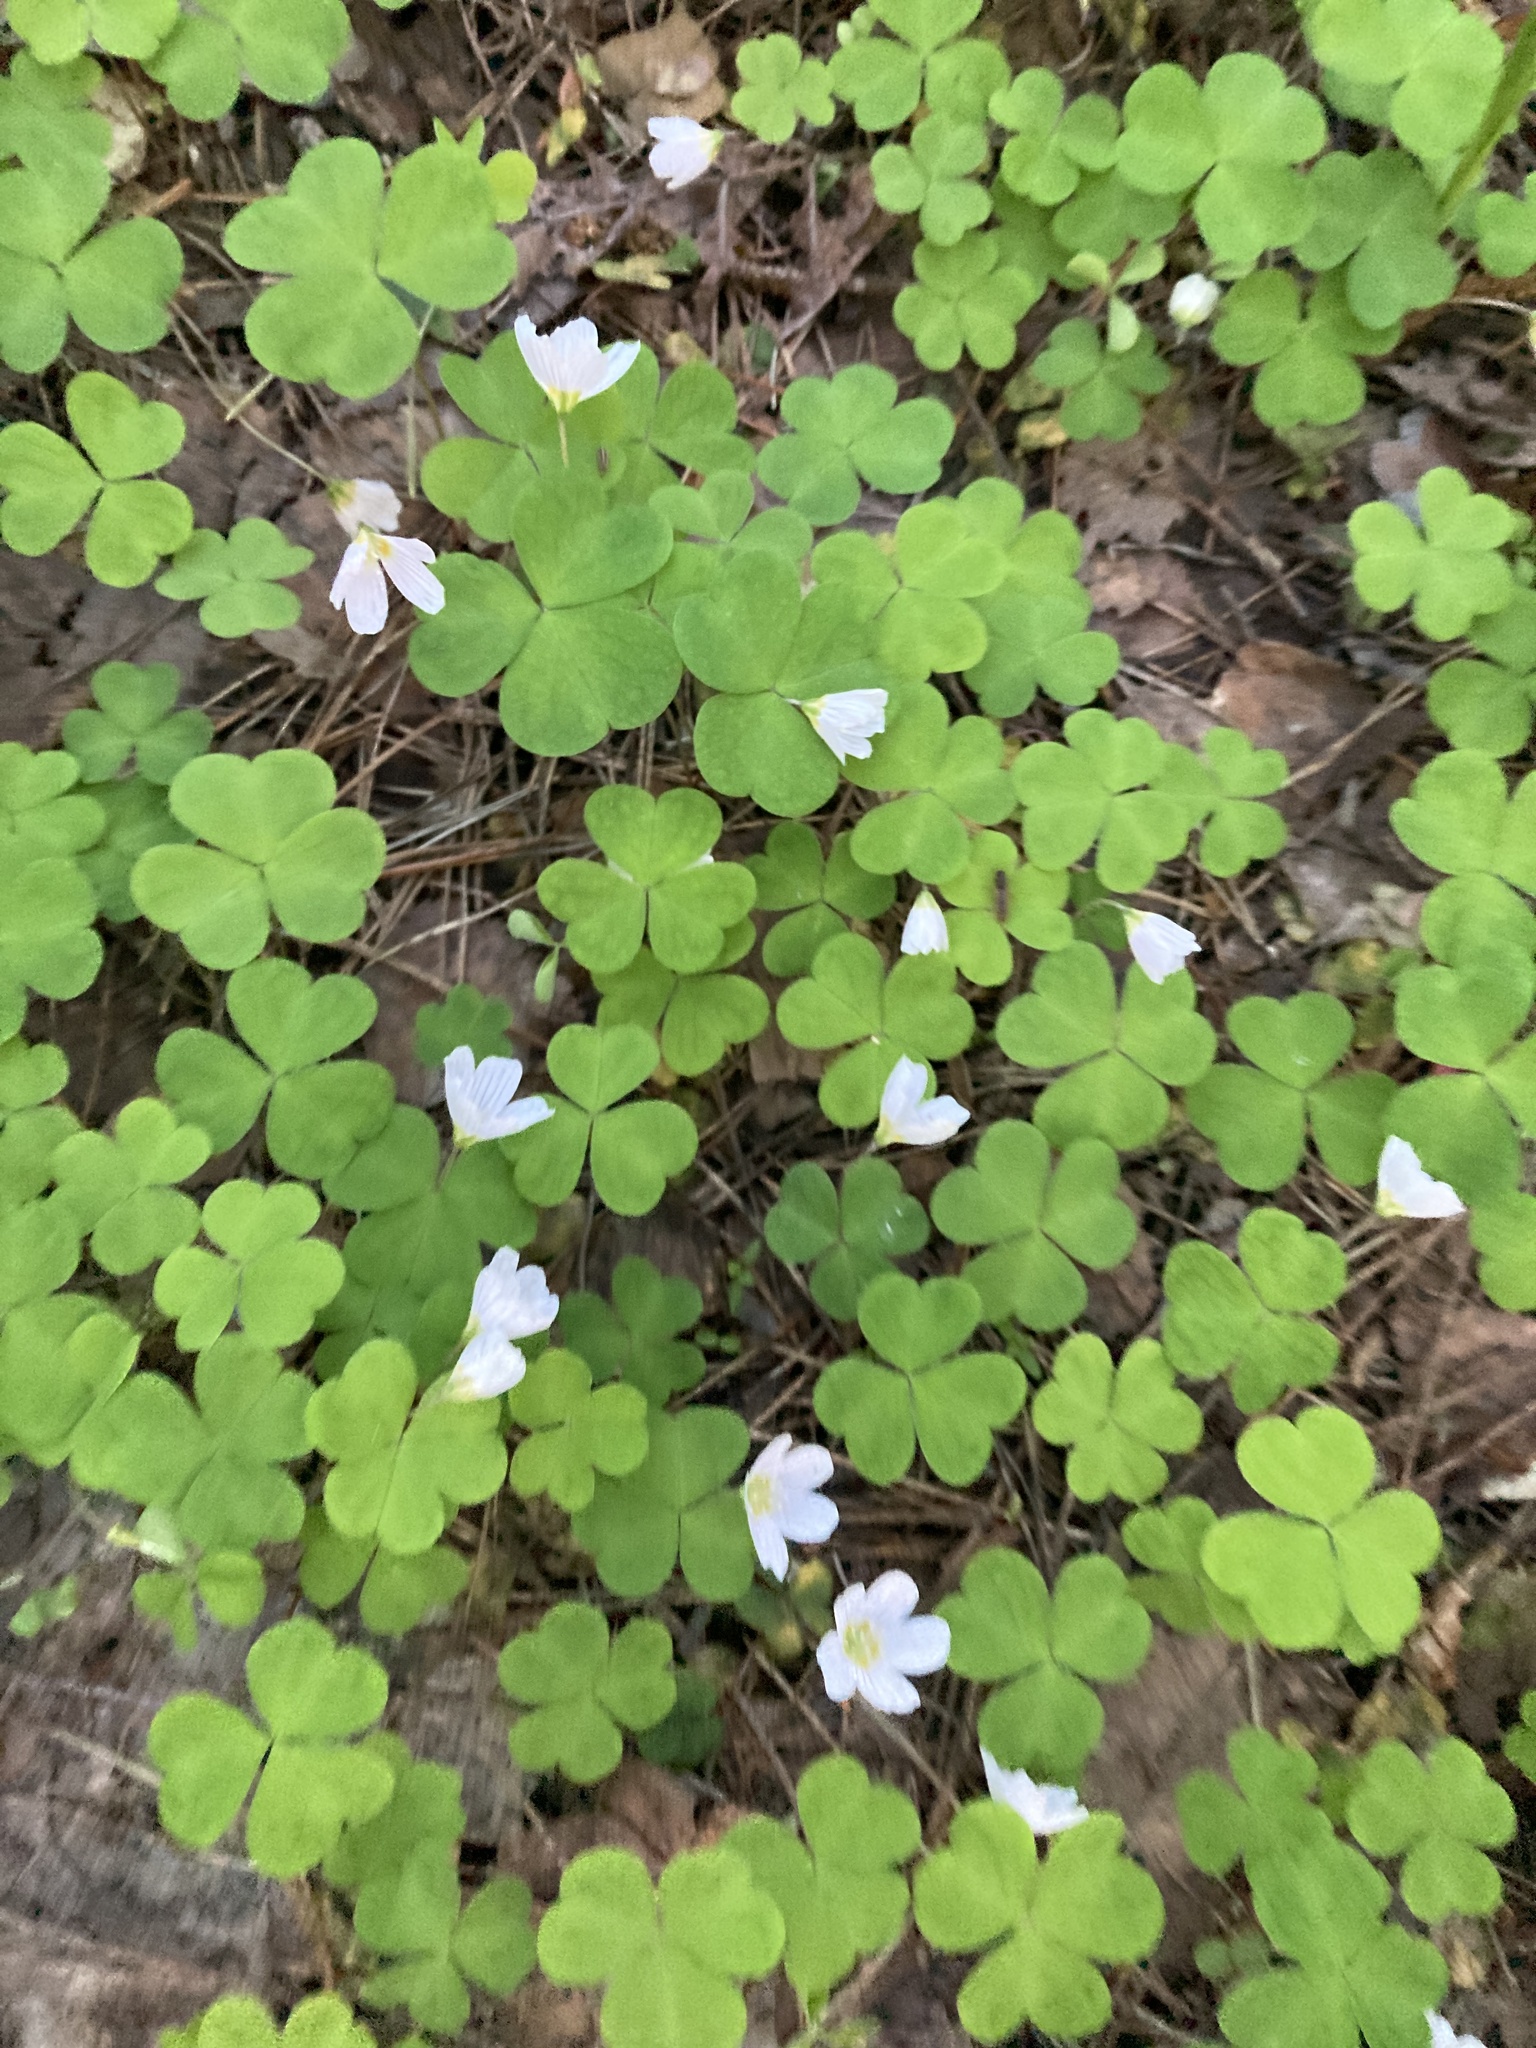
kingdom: Plantae
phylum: Tracheophyta
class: Magnoliopsida
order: Oxalidales
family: Oxalidaceae
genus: Oxalis
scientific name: Oxalis acetosella
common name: Wood-sorrel
